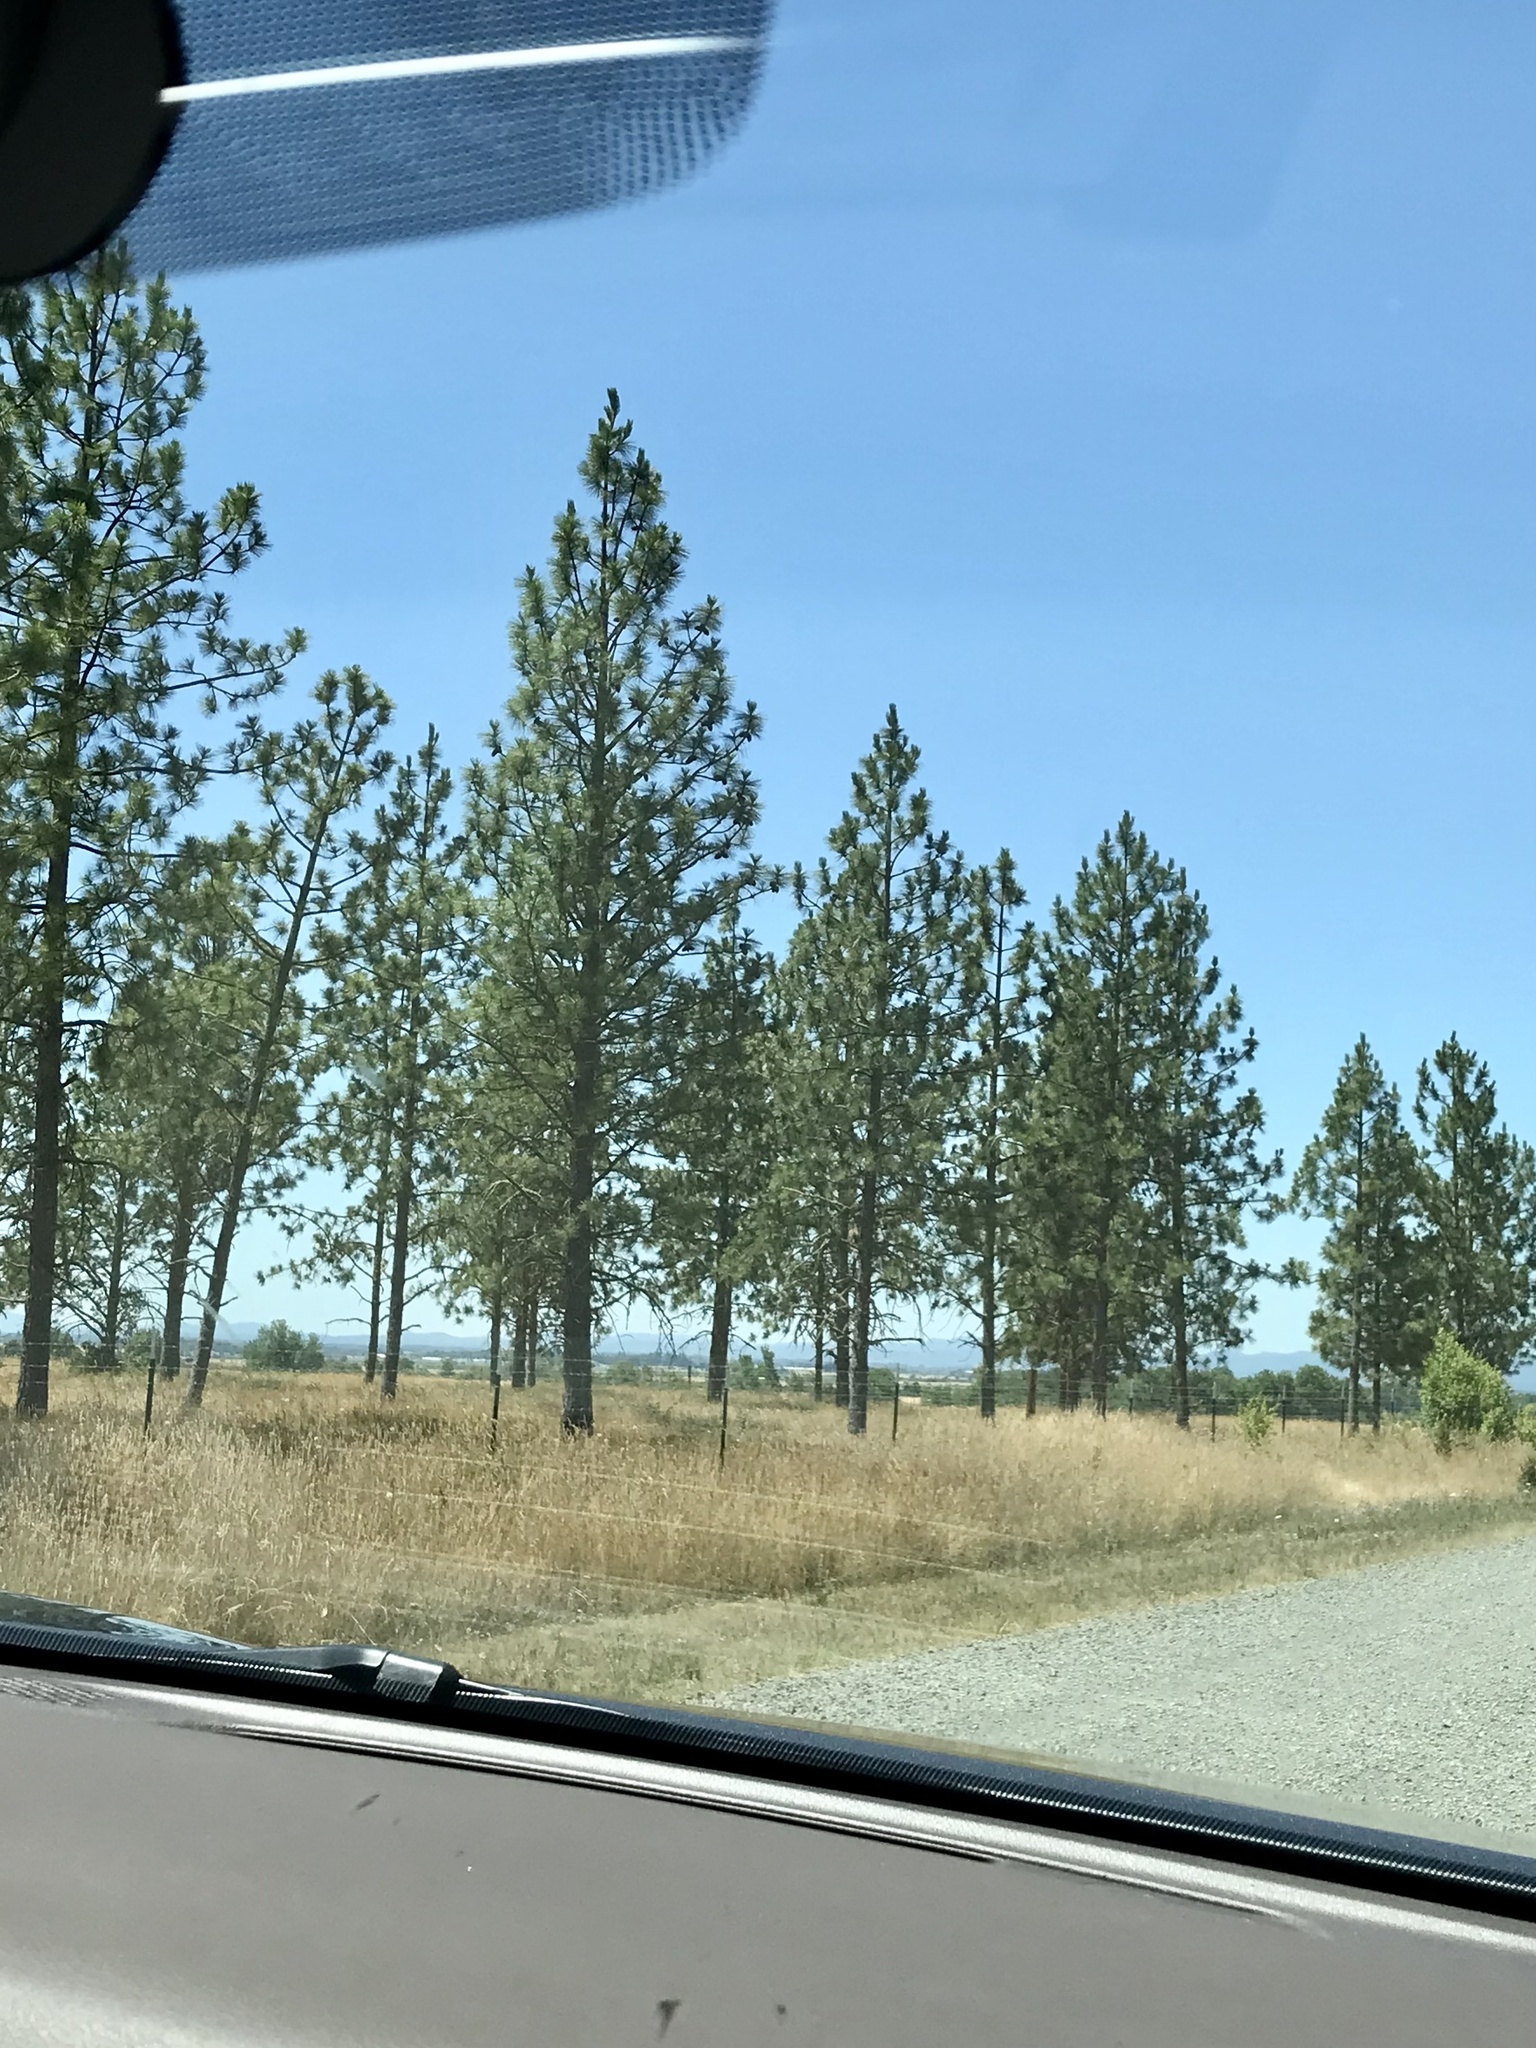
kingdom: Plantae
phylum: Tracheophyta
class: Pinopsida
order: Pinales
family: Pinaceae
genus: Pinus
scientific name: Pinus ponderosa
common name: Western yellow-pine
